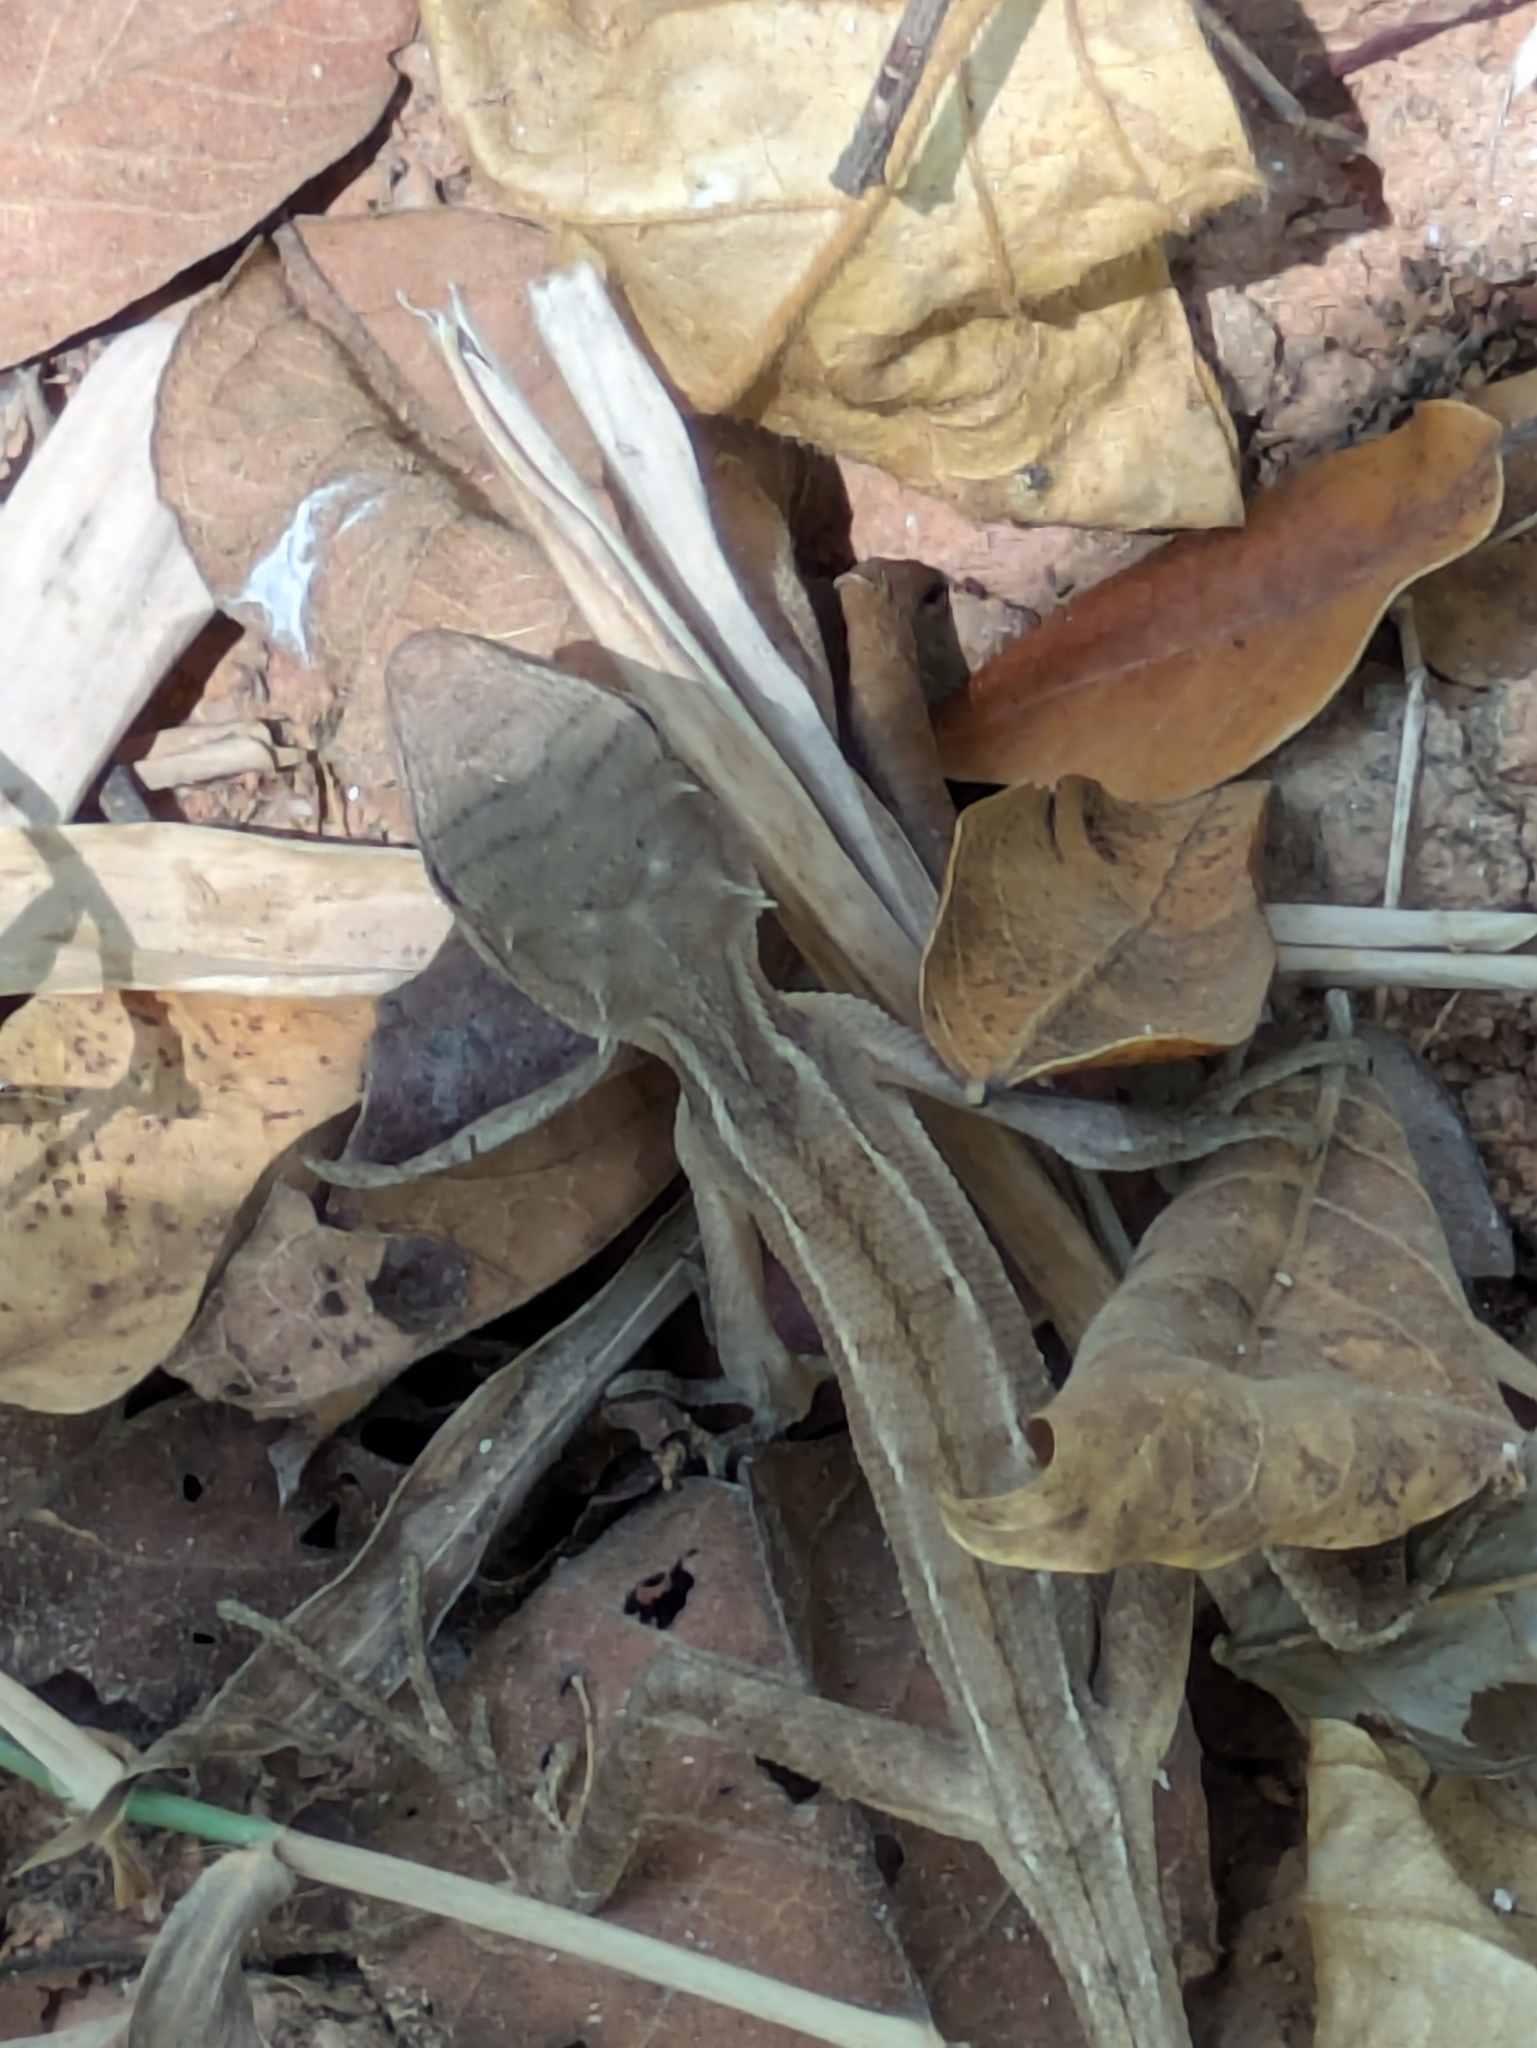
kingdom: Animalia
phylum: Chordata
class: Squamata
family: Agamidae
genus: Calotes
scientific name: Calotes emma
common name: Thailand bloodsucker
